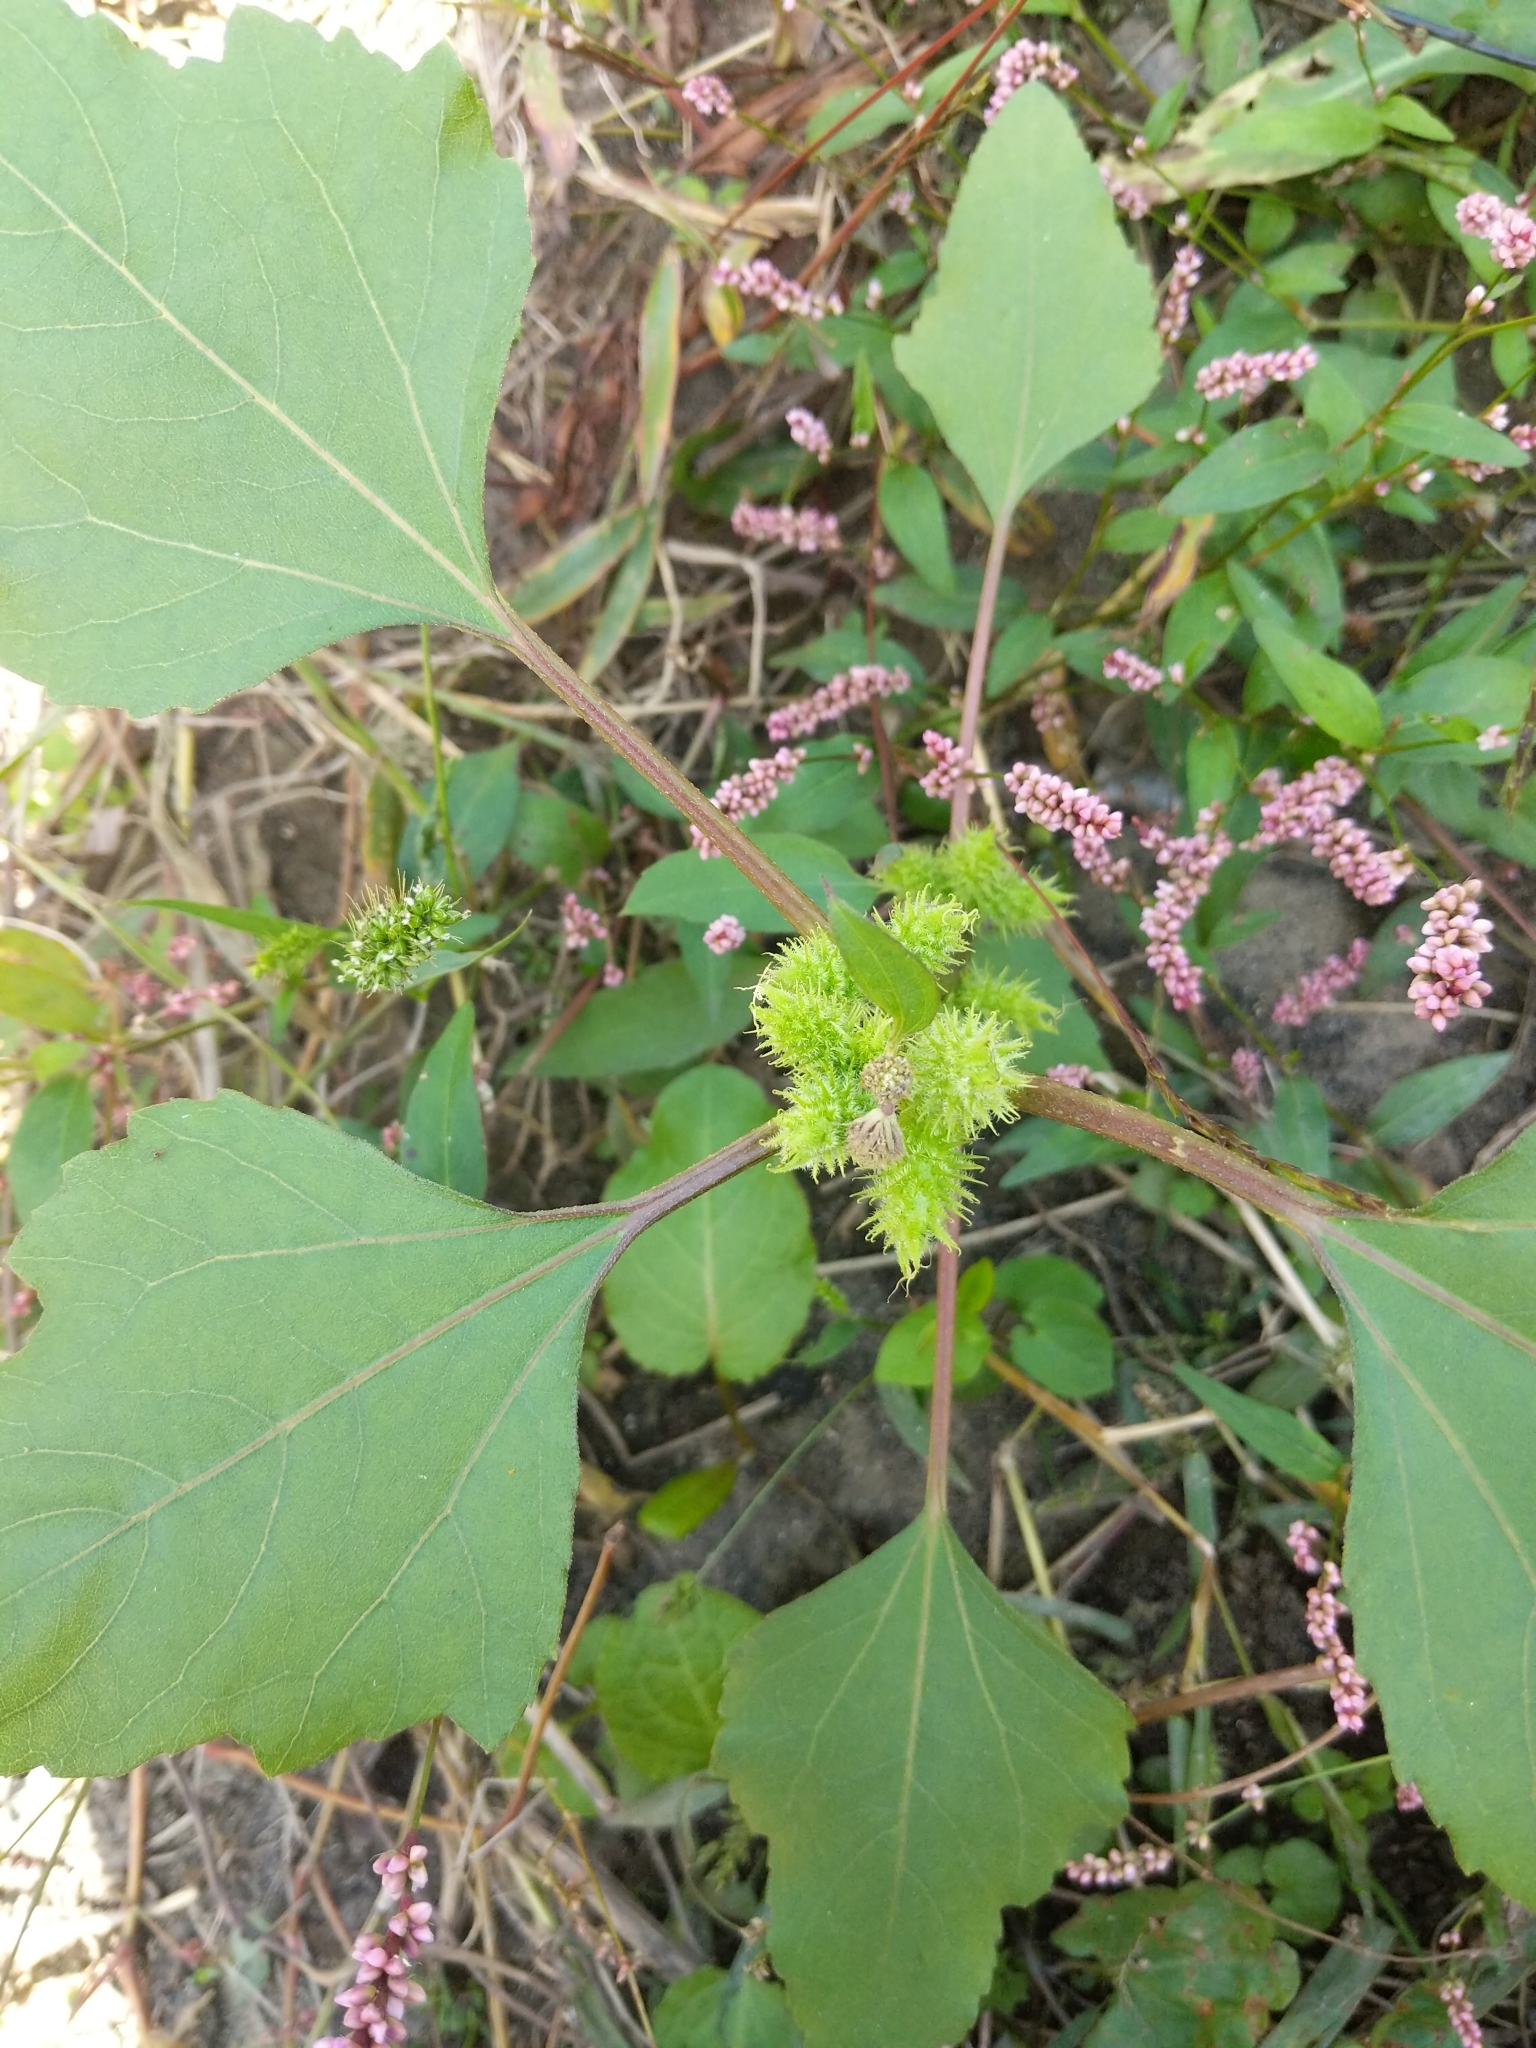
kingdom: Plantae
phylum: Tracheophyta
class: Magnoliopsida
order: Asterales
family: Asteraceae
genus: Xanthium
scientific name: Xanthium strumarium
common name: Rough cocklebur
